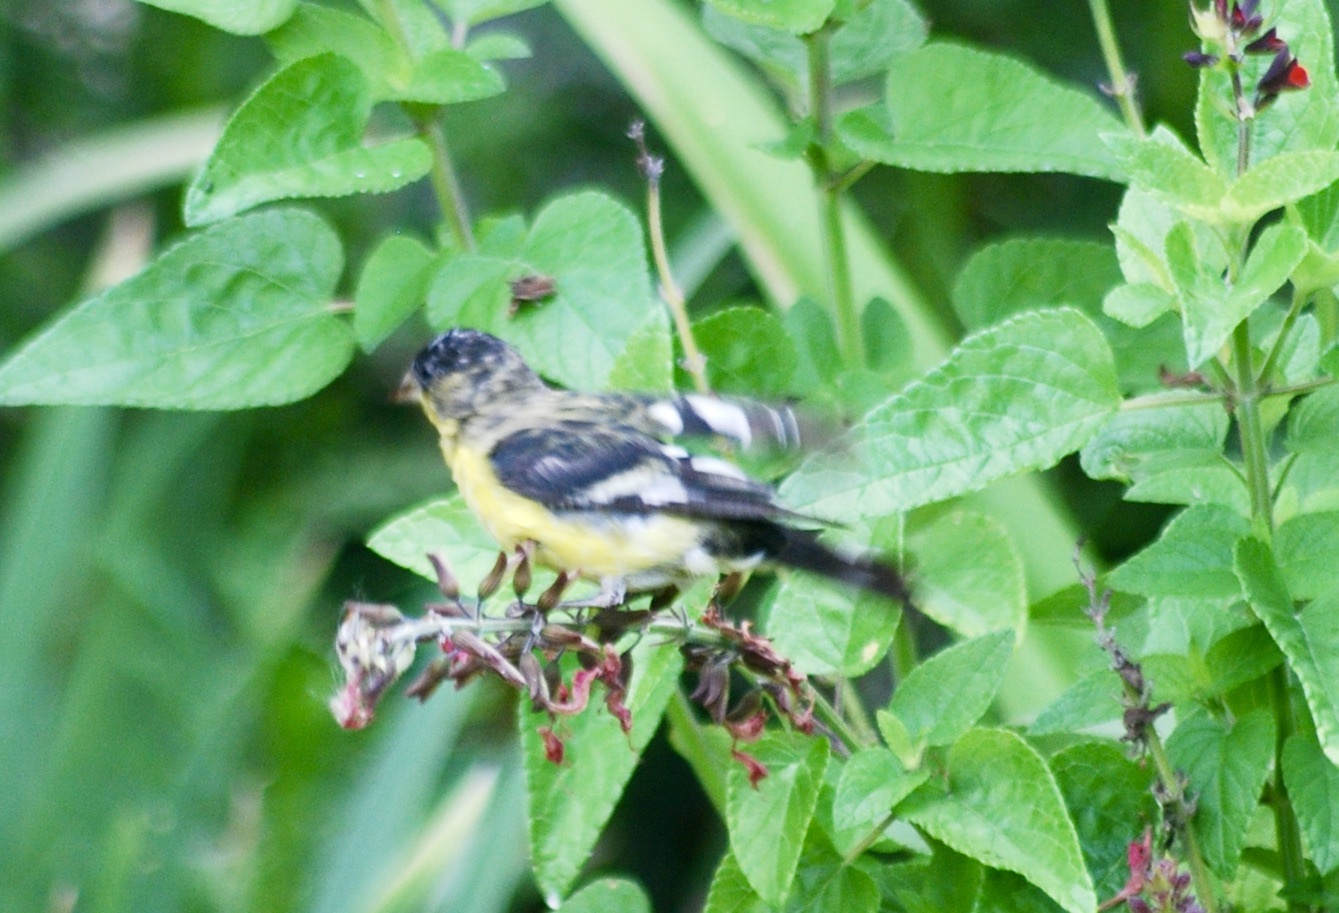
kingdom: Animalia
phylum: Chordata
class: Aves
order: Passeriformes
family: Fringillidae
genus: Spinus
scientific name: Spinus psaltria
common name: Lesser goldfinch
